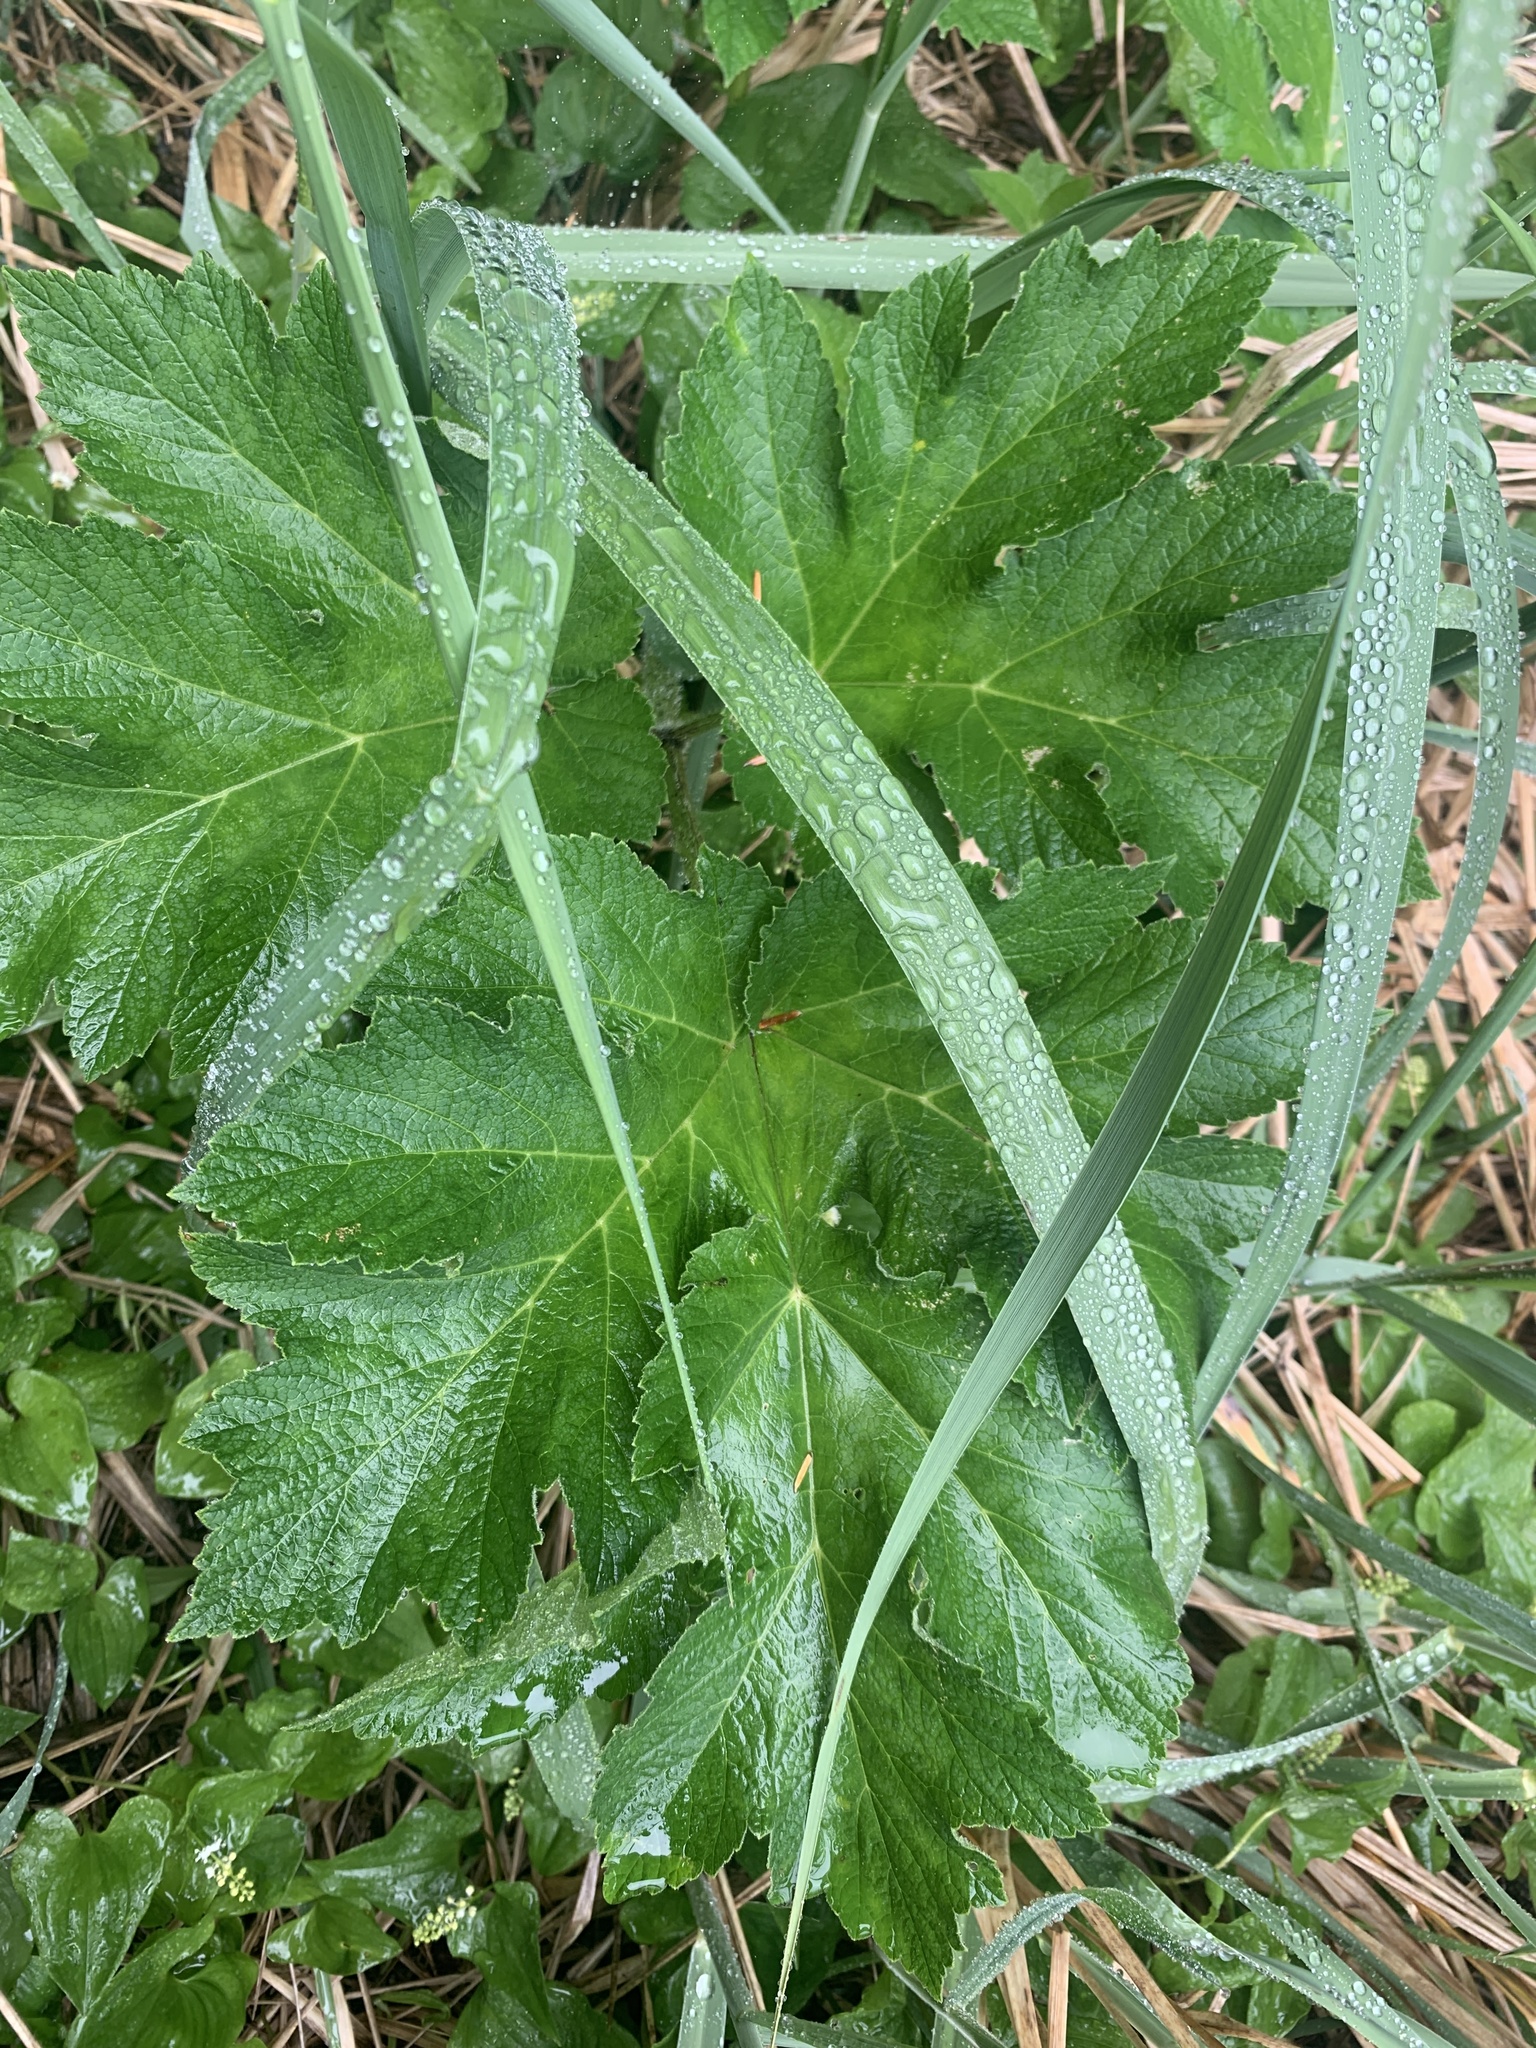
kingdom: Plantae
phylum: Tracheophyta
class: Magnoliopsida
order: Apiales
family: Apiaceae
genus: Heracleum
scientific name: Heracleum maximum
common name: American cow parsnip
